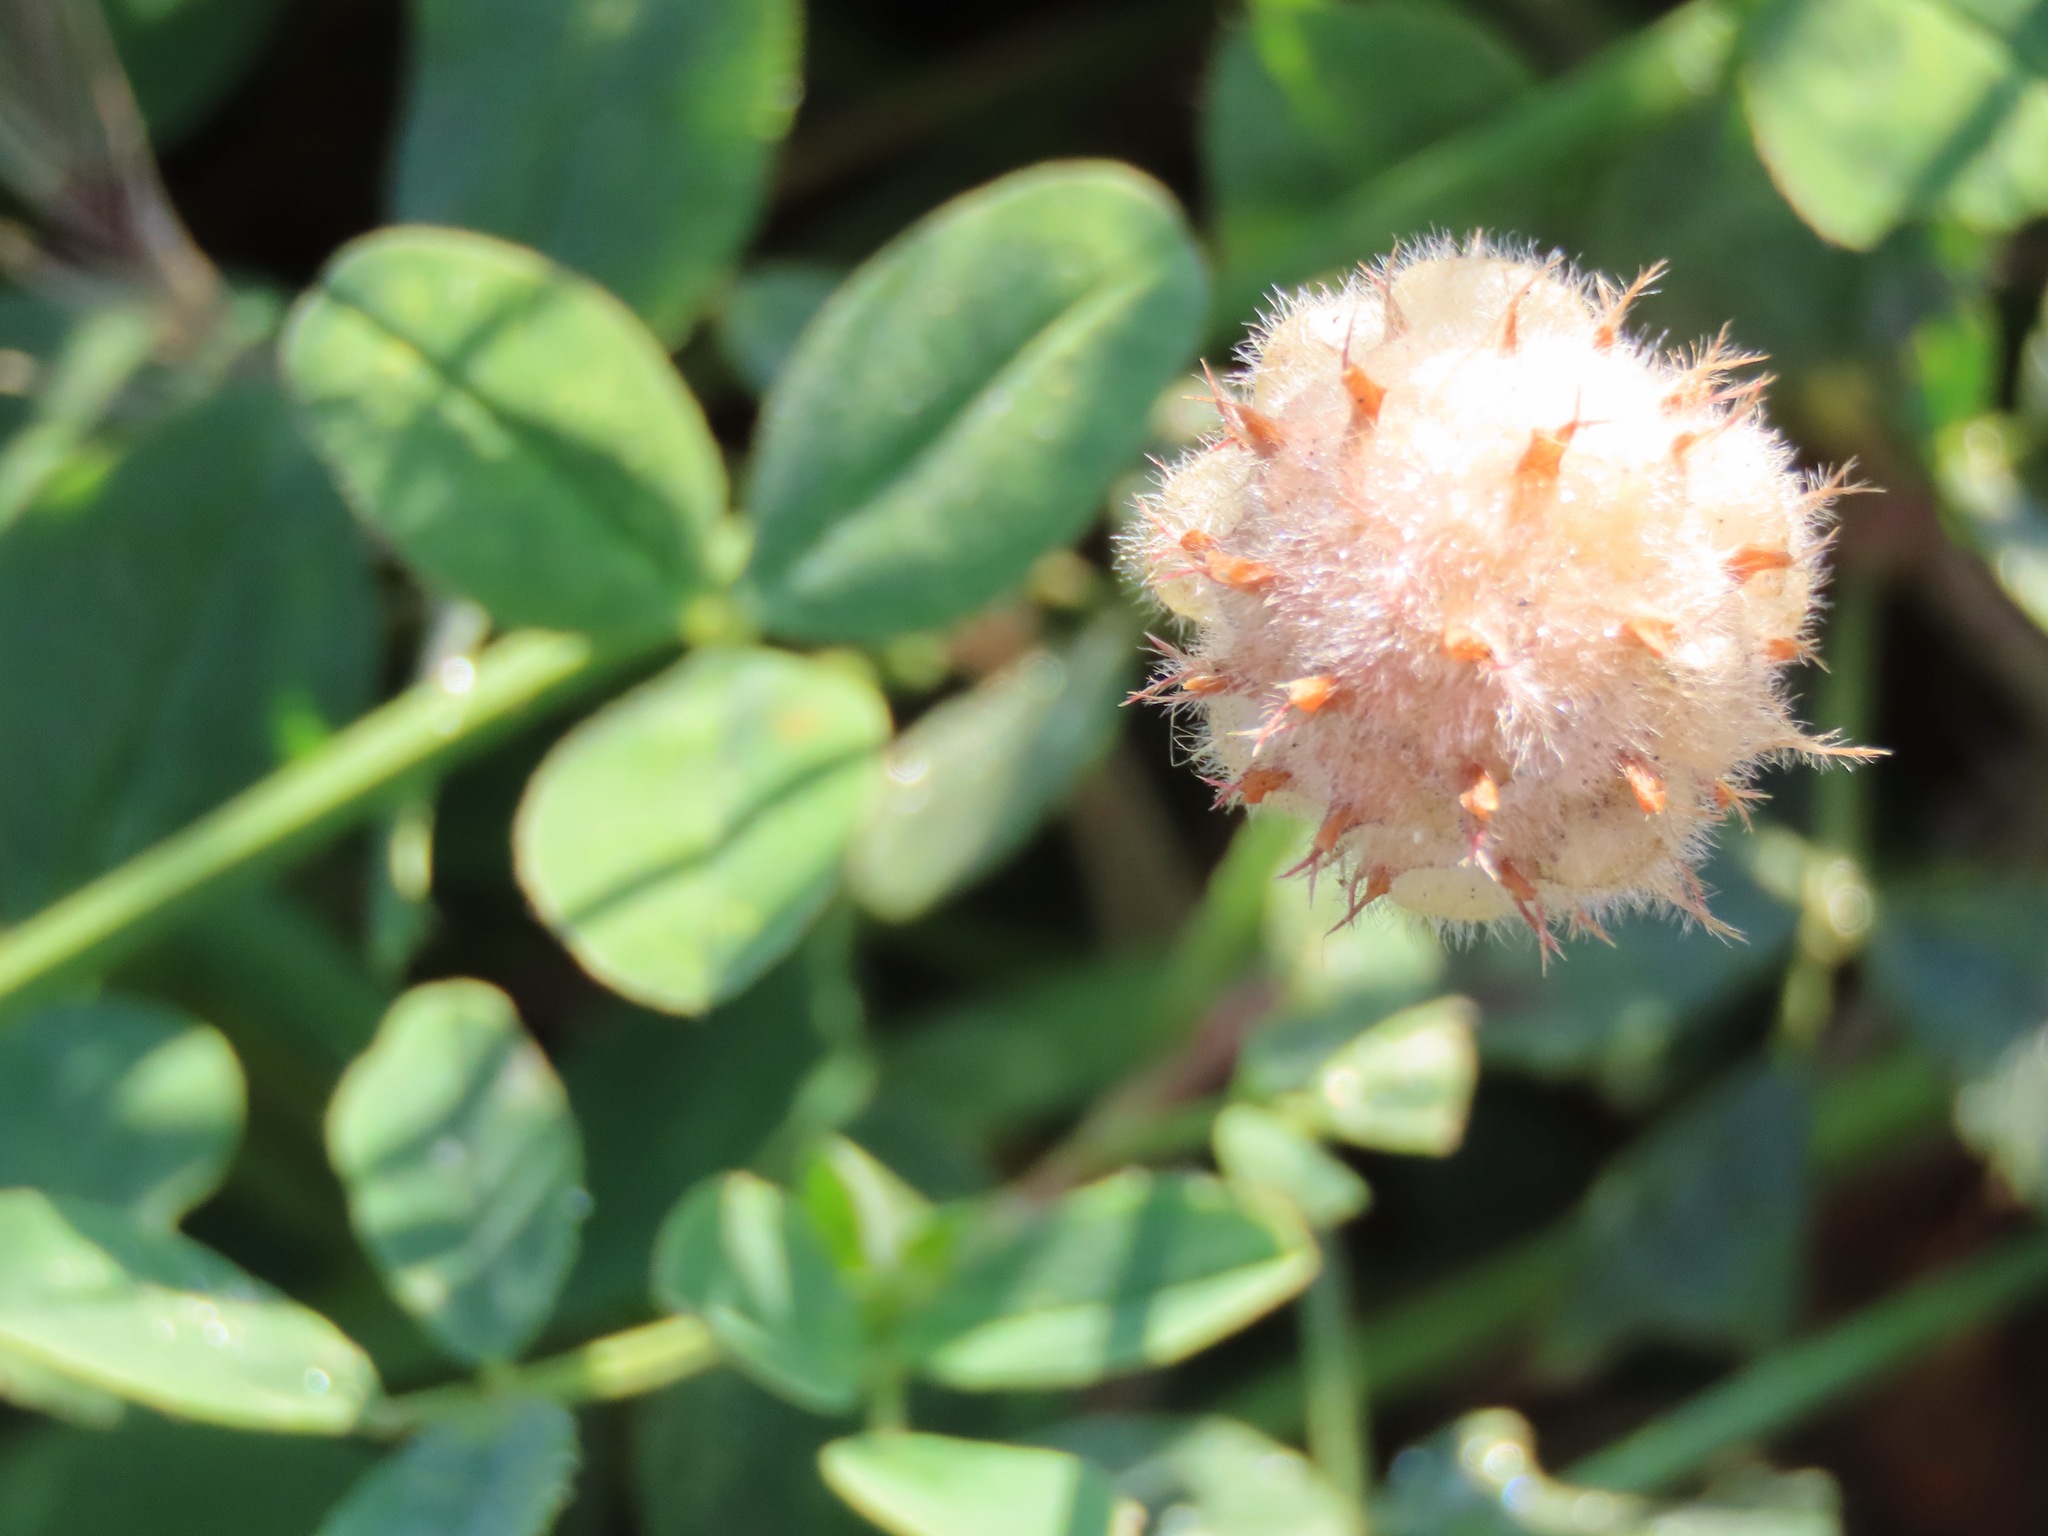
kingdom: Plantae
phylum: Tracheophyta
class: Magnoliopsida
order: Fabales
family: Fabaceae
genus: Trifolium
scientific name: Trifolium fragiferum
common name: Strawberry clover
